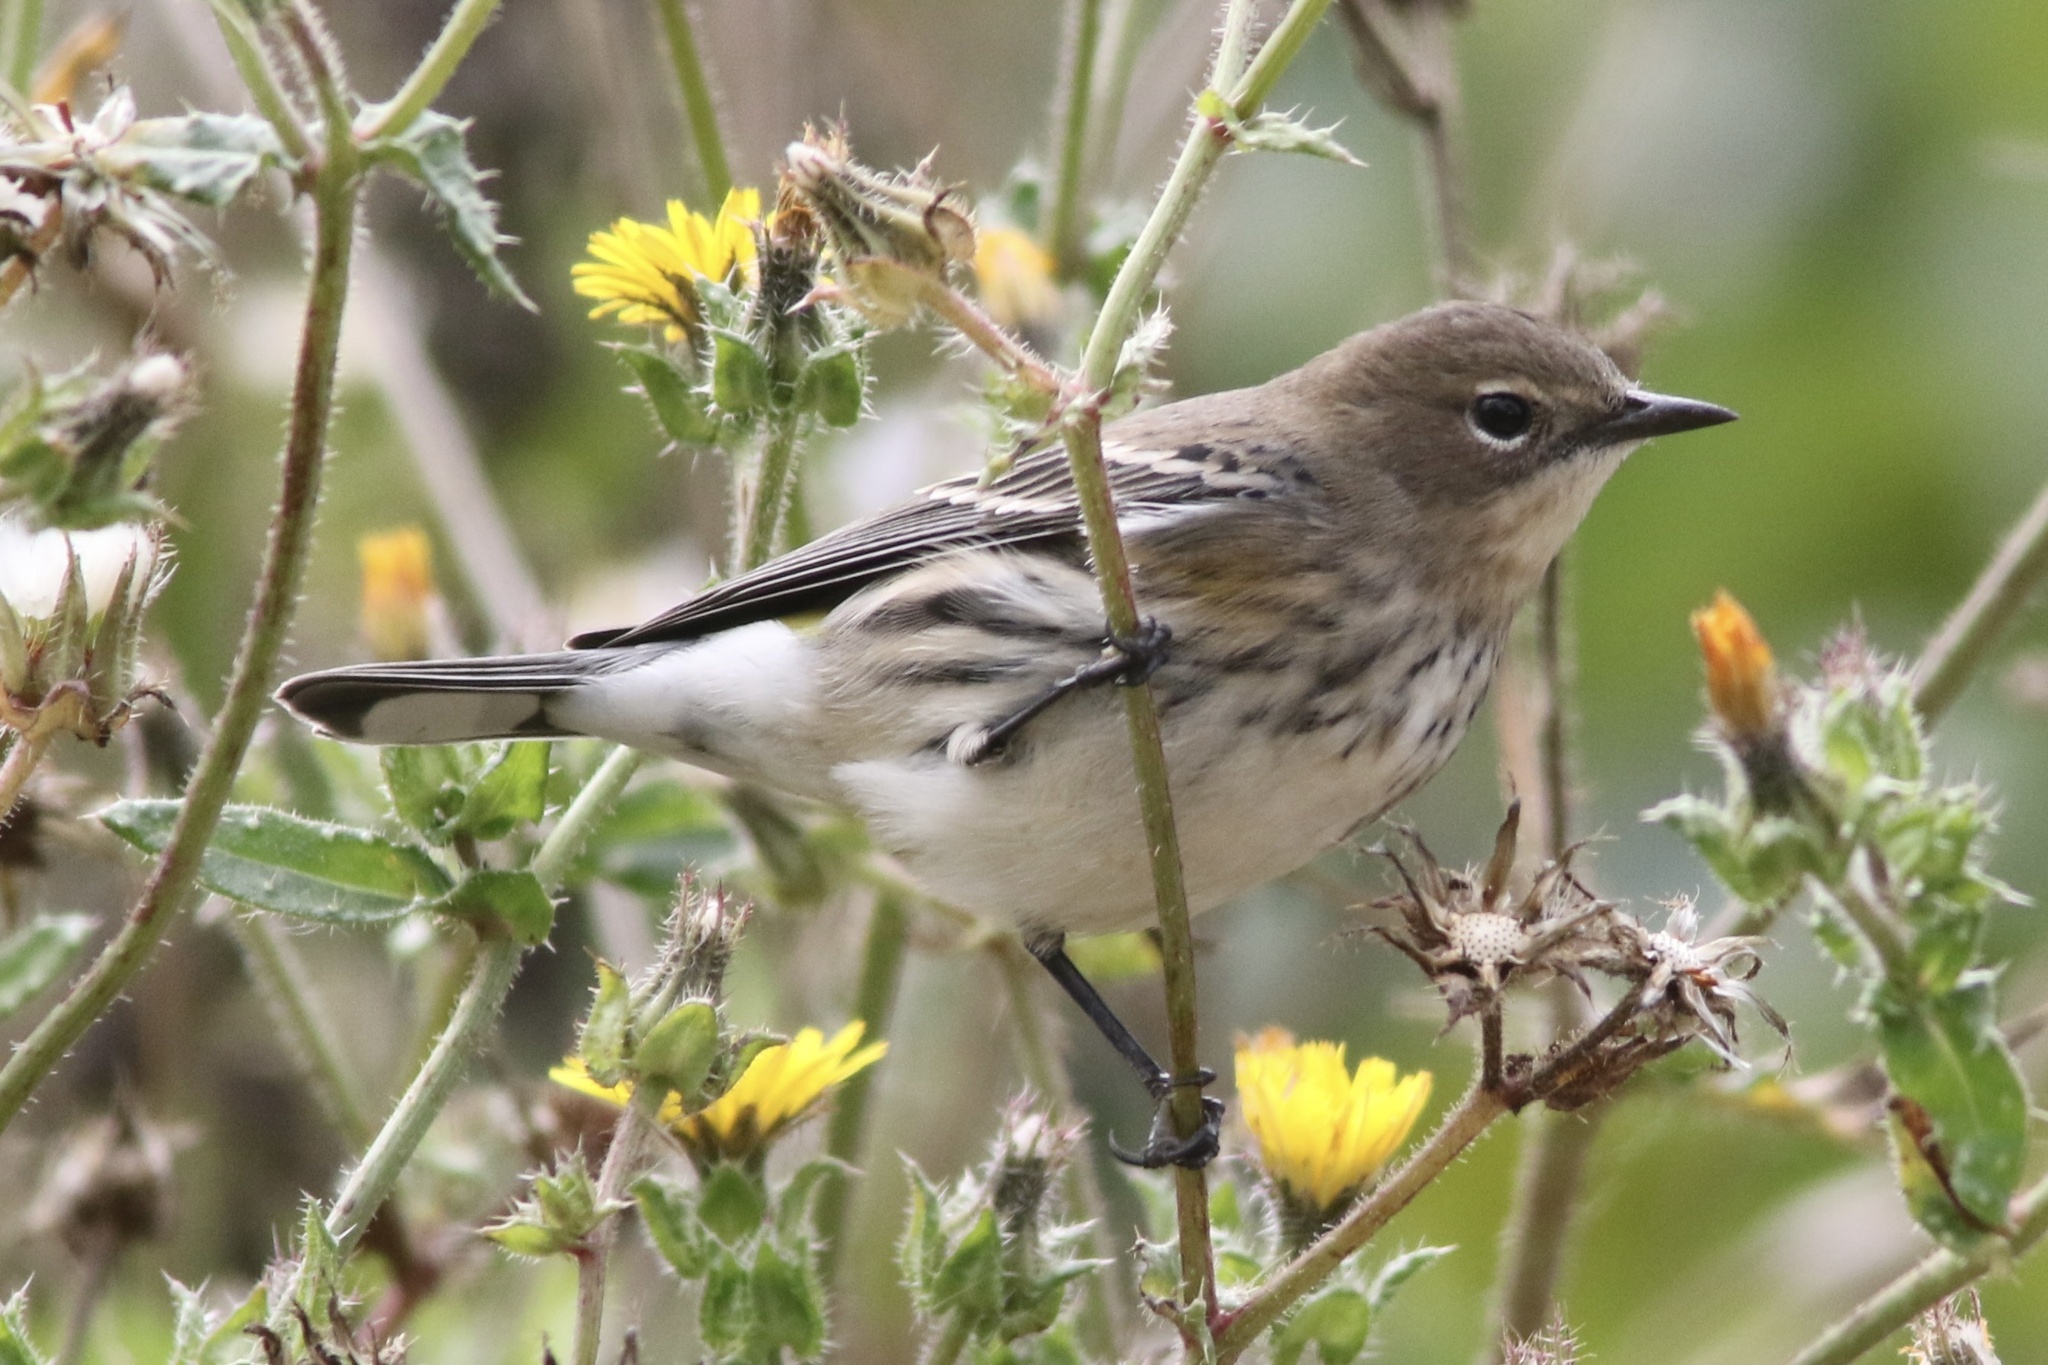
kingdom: Animalia
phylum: Chordata
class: Aves
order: Passeriformes
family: Parulidae
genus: Setophaga
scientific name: Setophaga coronata
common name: Myrtle warbler
